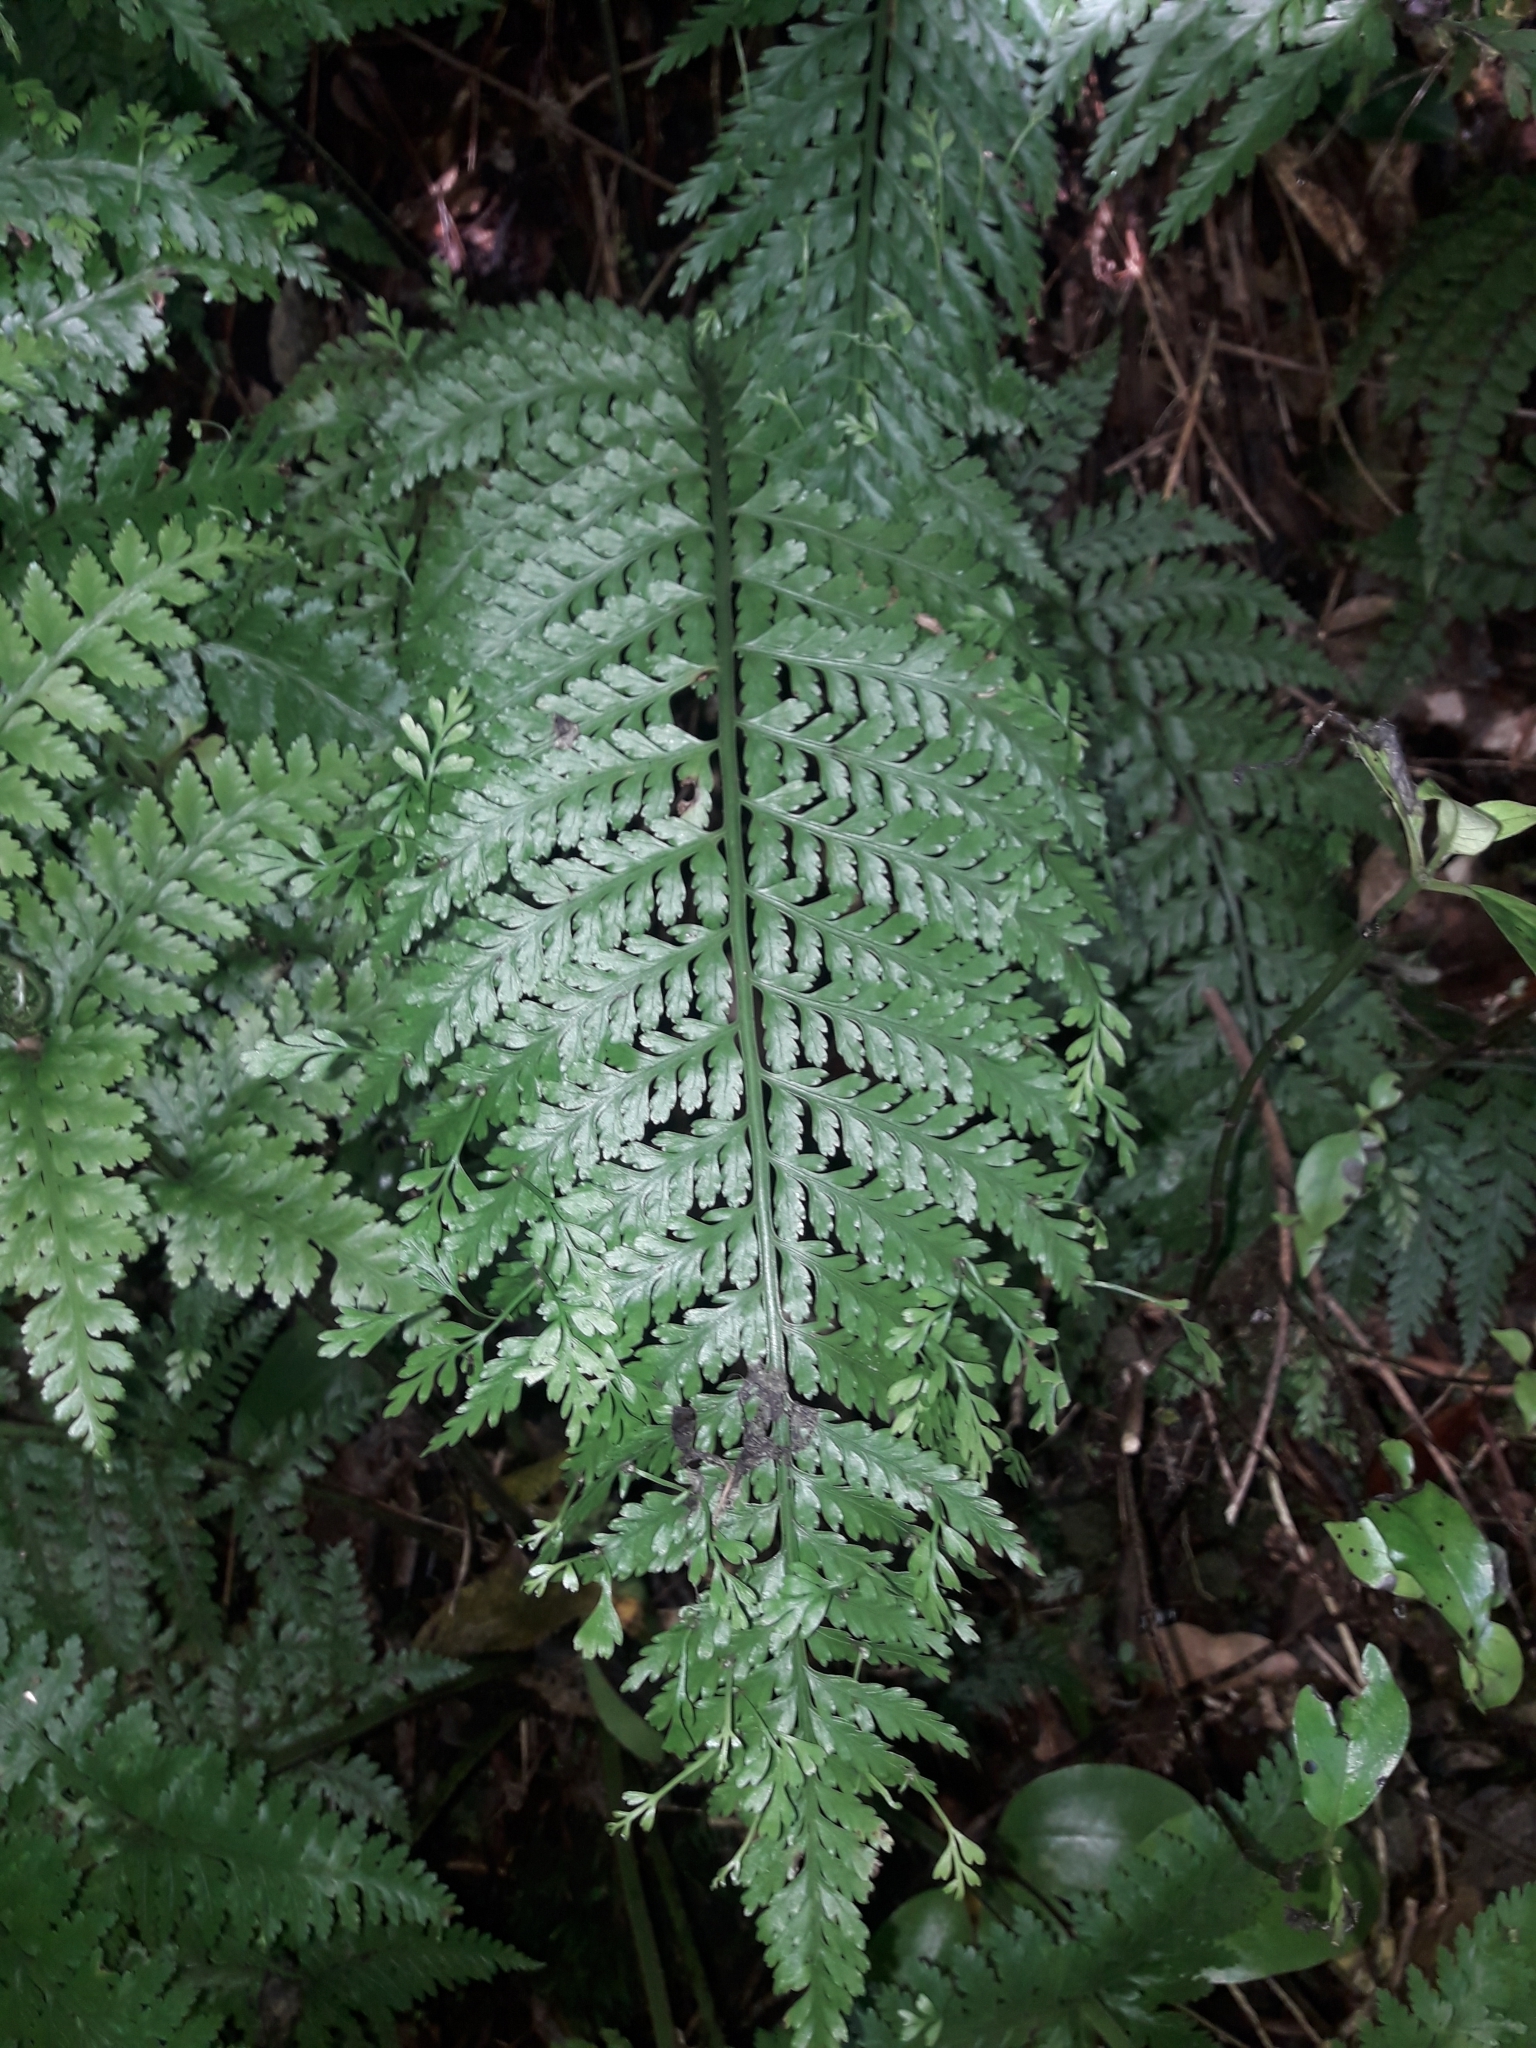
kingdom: Plantae
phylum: Tracheophyta
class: Polypodiopsida
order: Polypodiales
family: Aspleniaceae
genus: Asplenium
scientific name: Asplenium bulbiferum
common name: Mother fern
